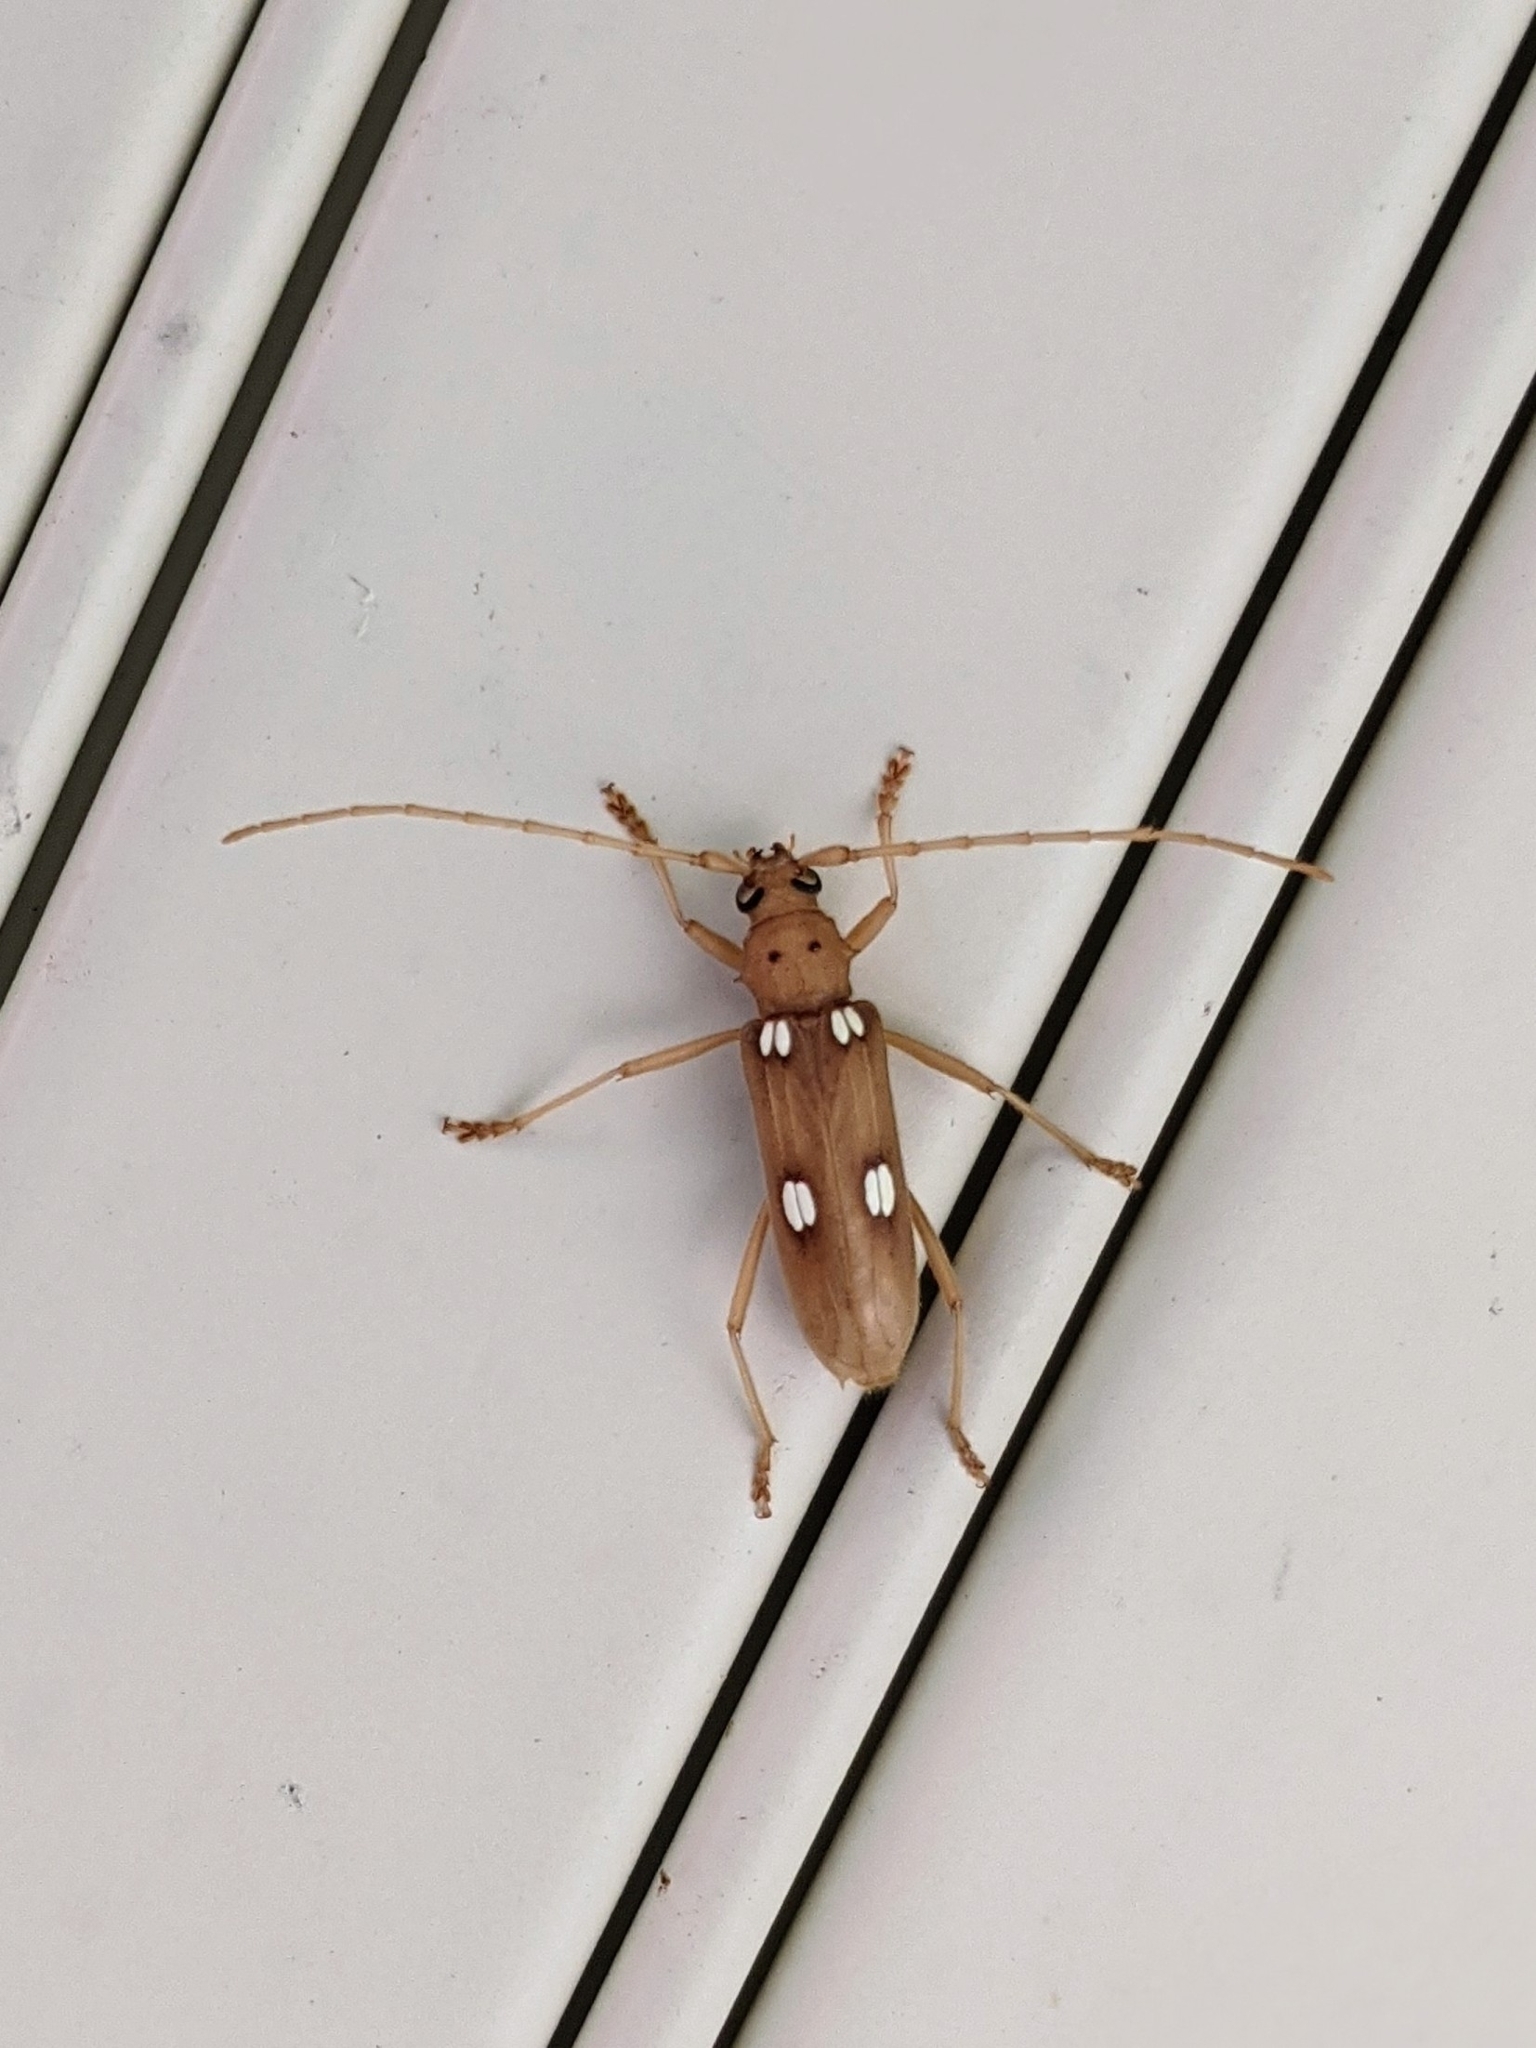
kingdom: Animalia
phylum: Arthropoda
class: Insecta
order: Coleoptera
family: Cerambycidae
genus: Eburia
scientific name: Eburia quadrigeminata
